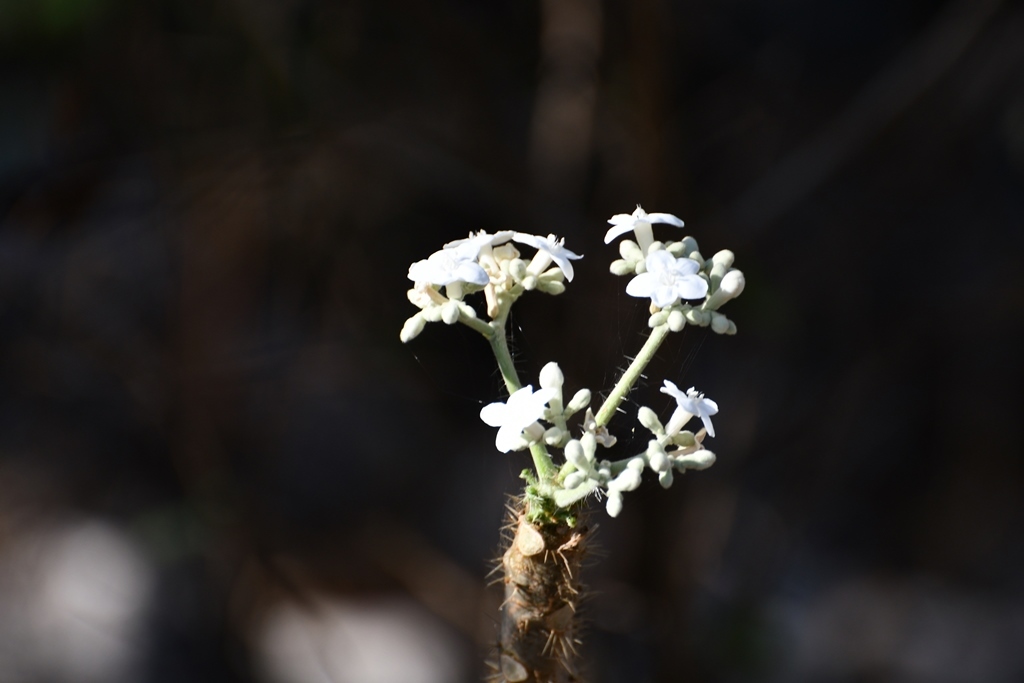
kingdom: Plantae
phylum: Tracheophyta
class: Magnoliopsida
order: Malpighiales
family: Euphorbiaceae
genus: Cnidoscolus
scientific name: Cnidoscolus multilobus
